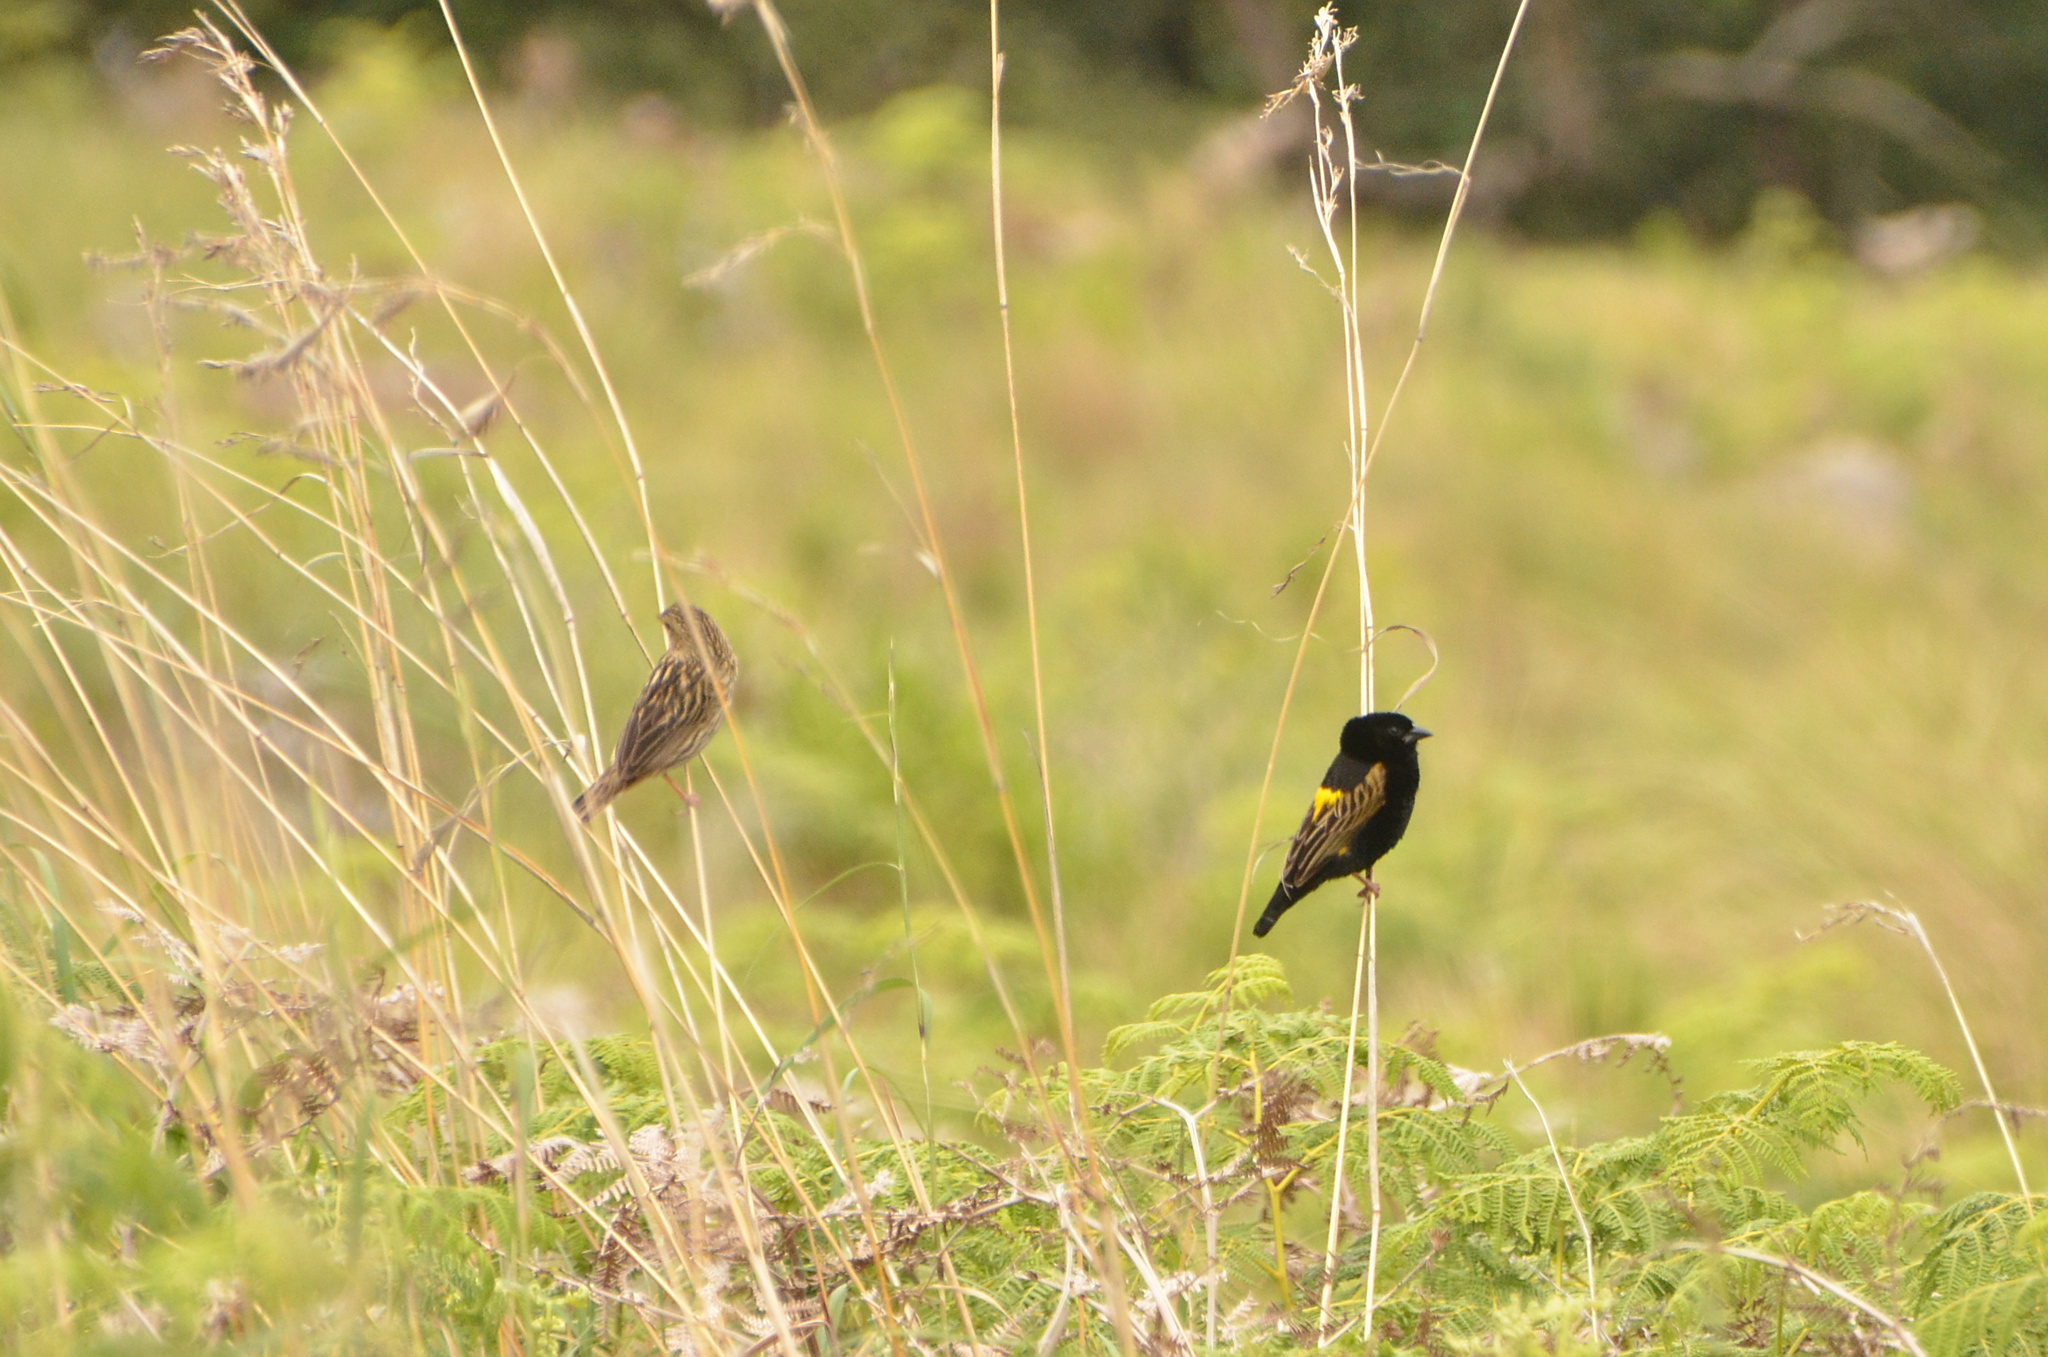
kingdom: Animalia
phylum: Chordata
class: Aves
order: Passeriformes
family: Ploceidae
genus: Euplectes
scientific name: Euplectes capensis
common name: Yellow bishop
